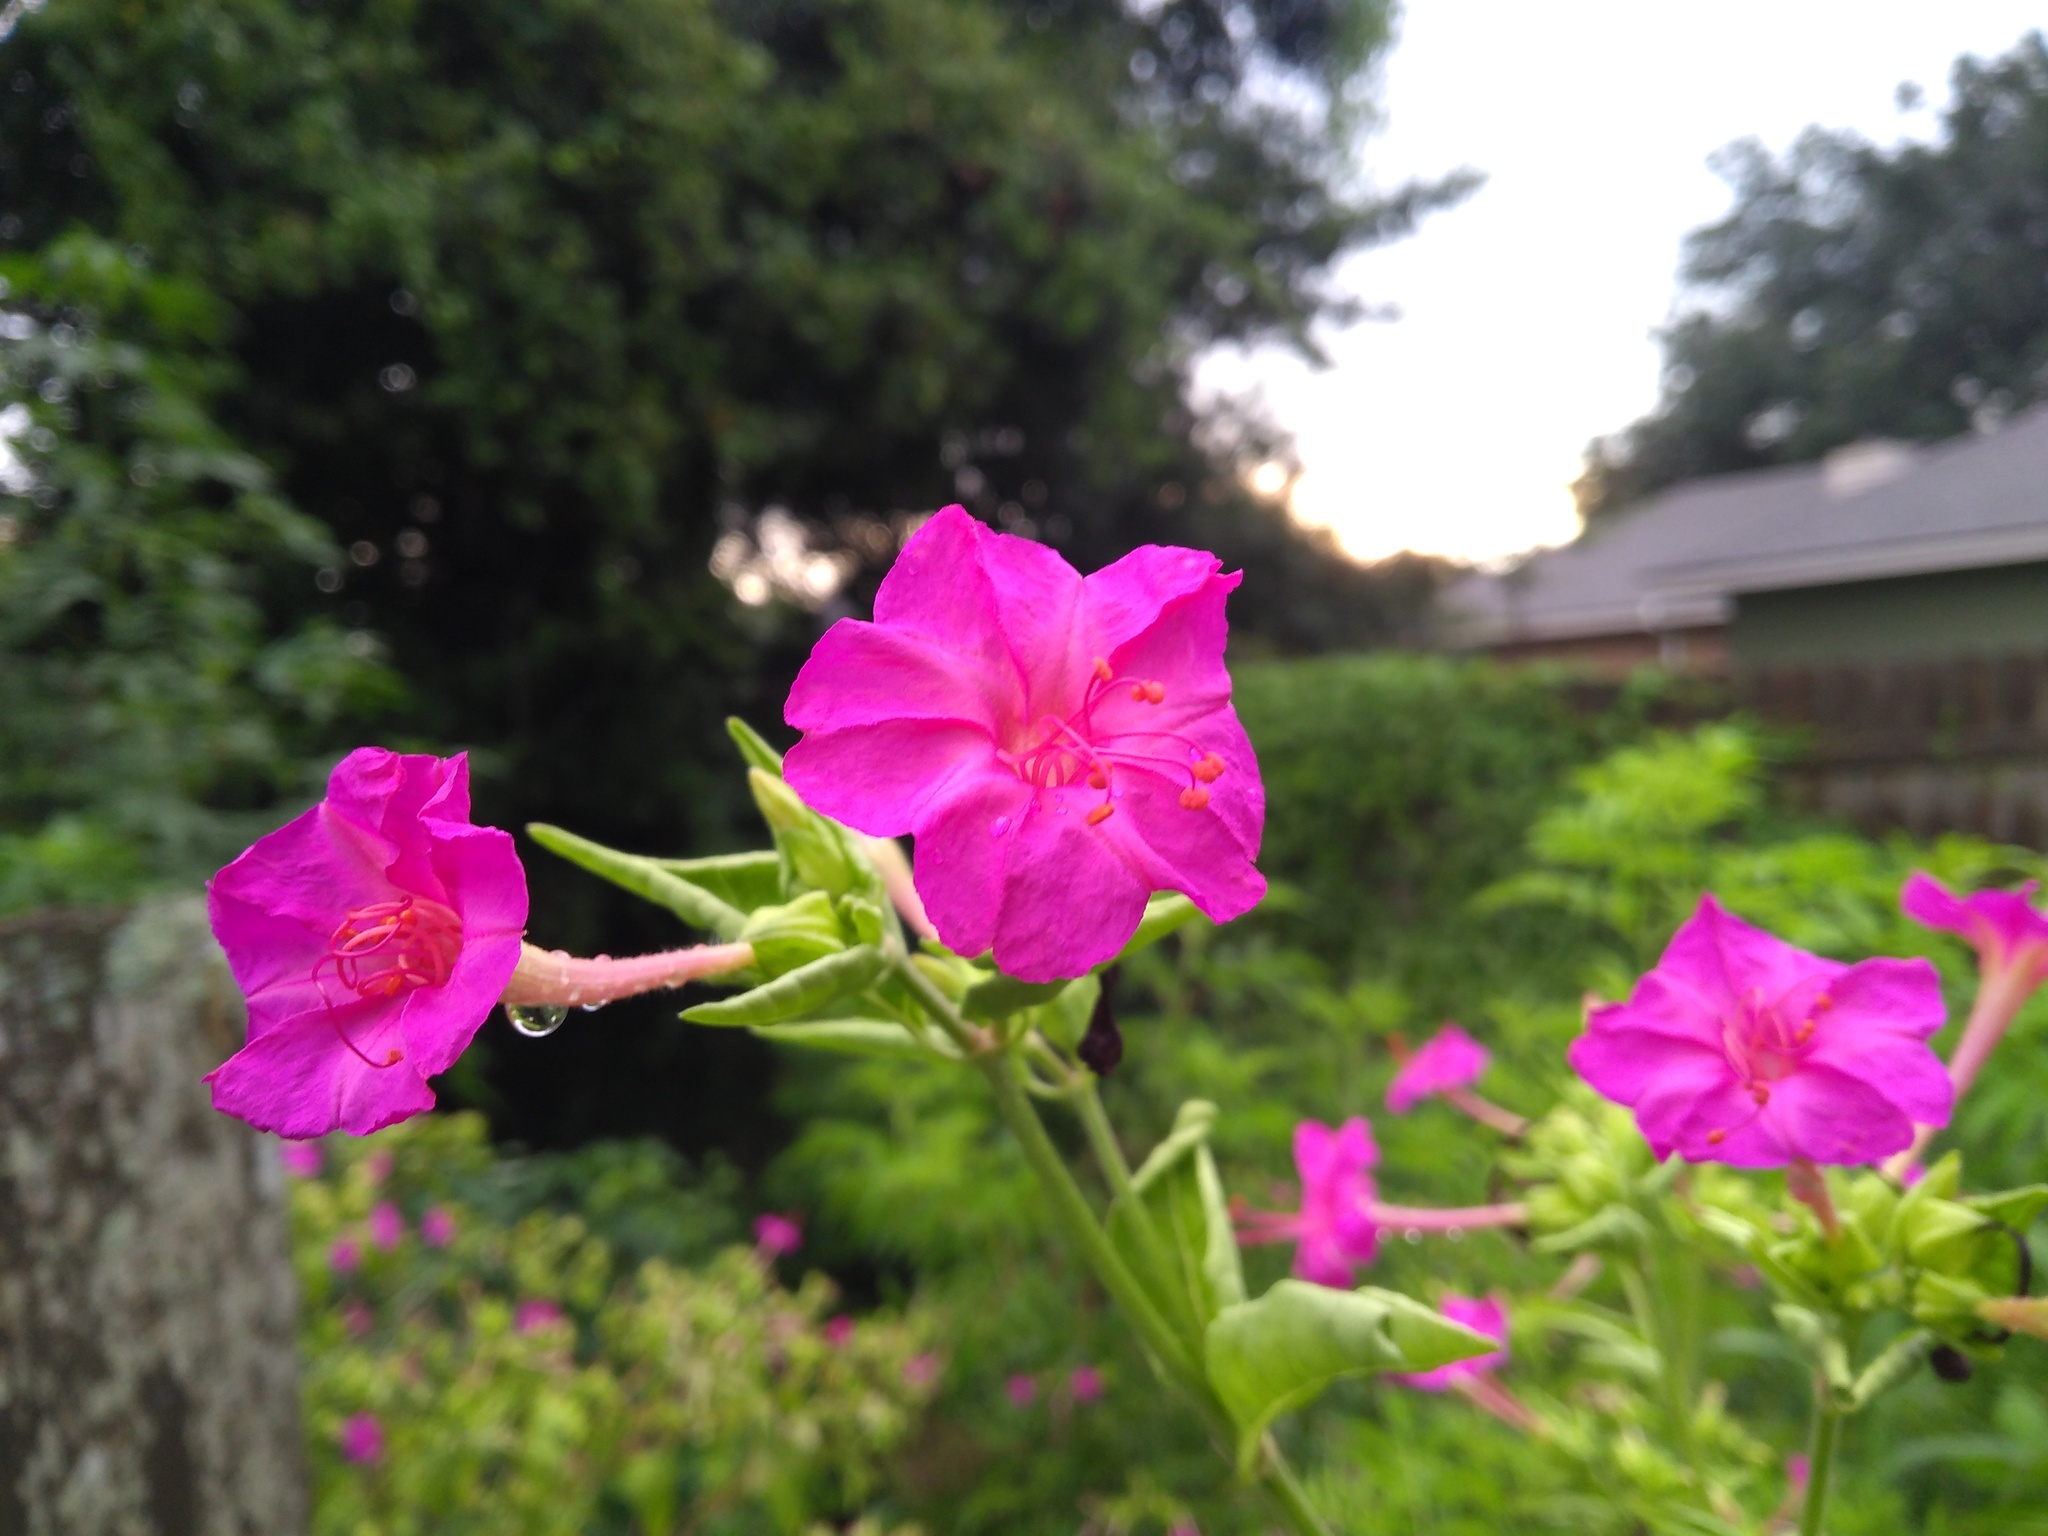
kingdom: Plantae
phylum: Tracheophyta
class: Magnoliopsida
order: Caryophyllales
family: Nyctaginaceae
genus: Mirabilis
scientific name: Mirabilis jalapa
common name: Marvel-of-peru
